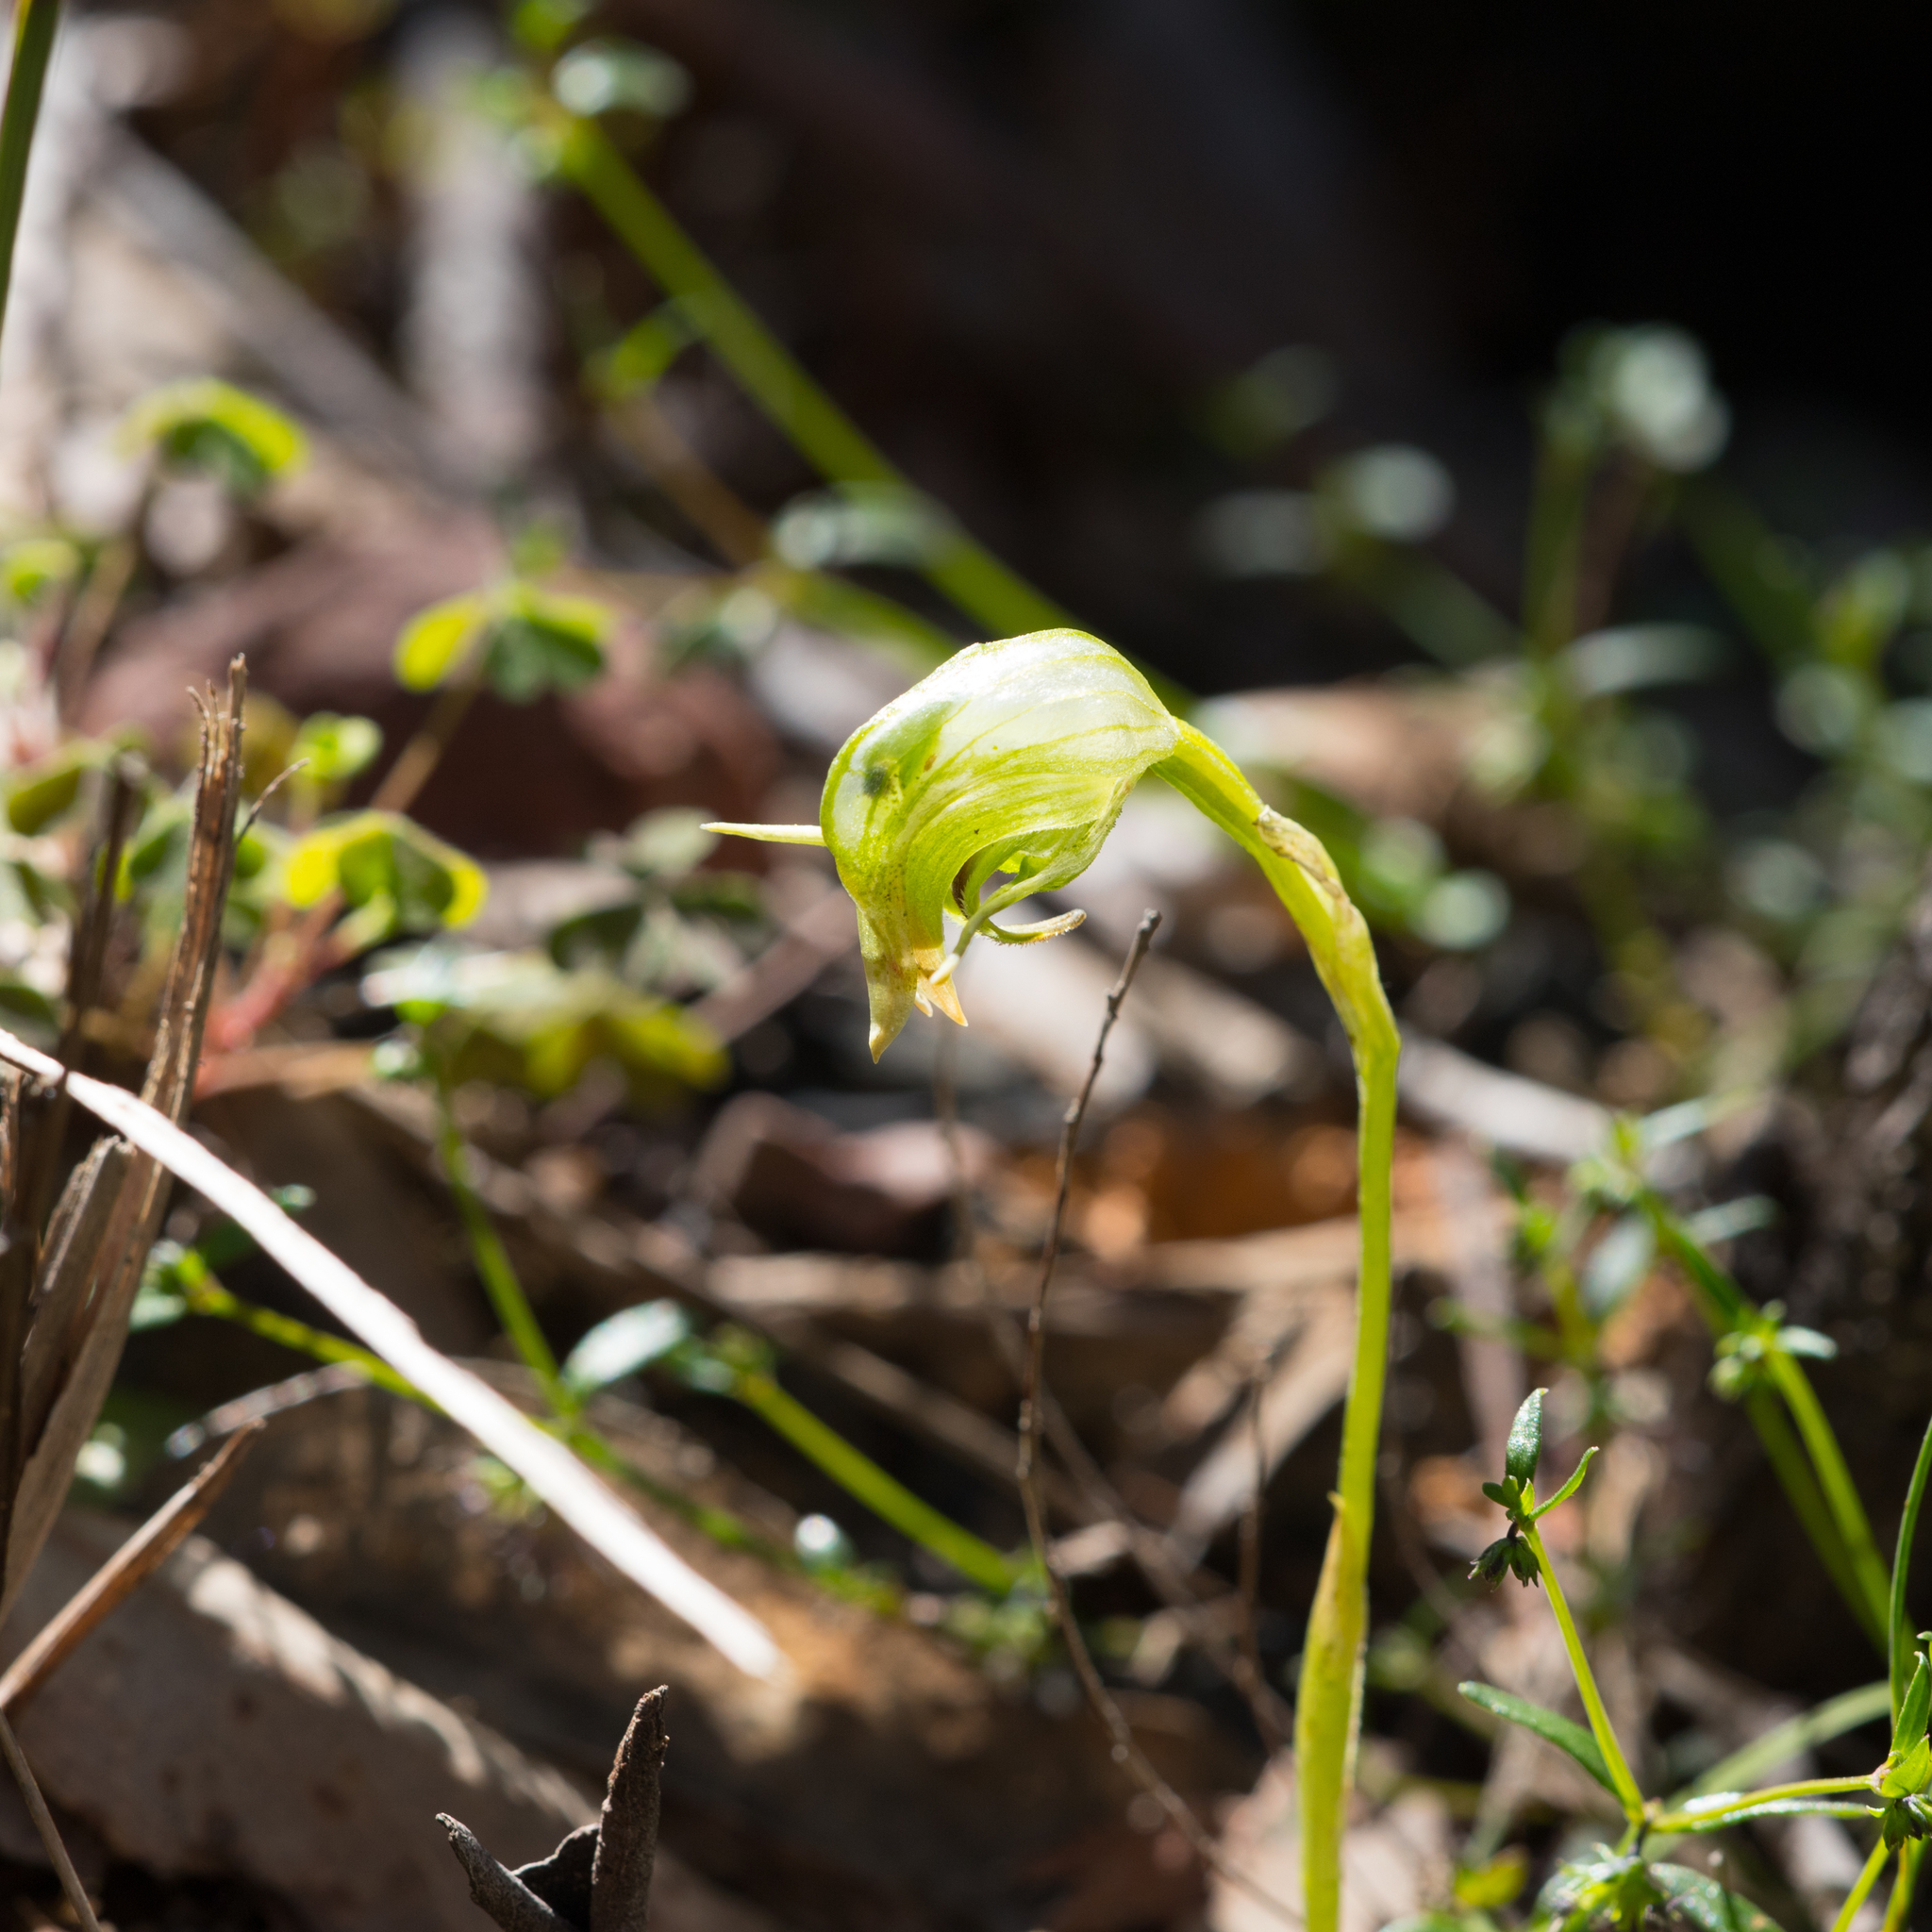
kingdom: Plantae
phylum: Tracheophyta
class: Liliopsida
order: Asparagales
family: Orchidaceae
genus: Pterostylis
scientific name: Pterostylis nutans
